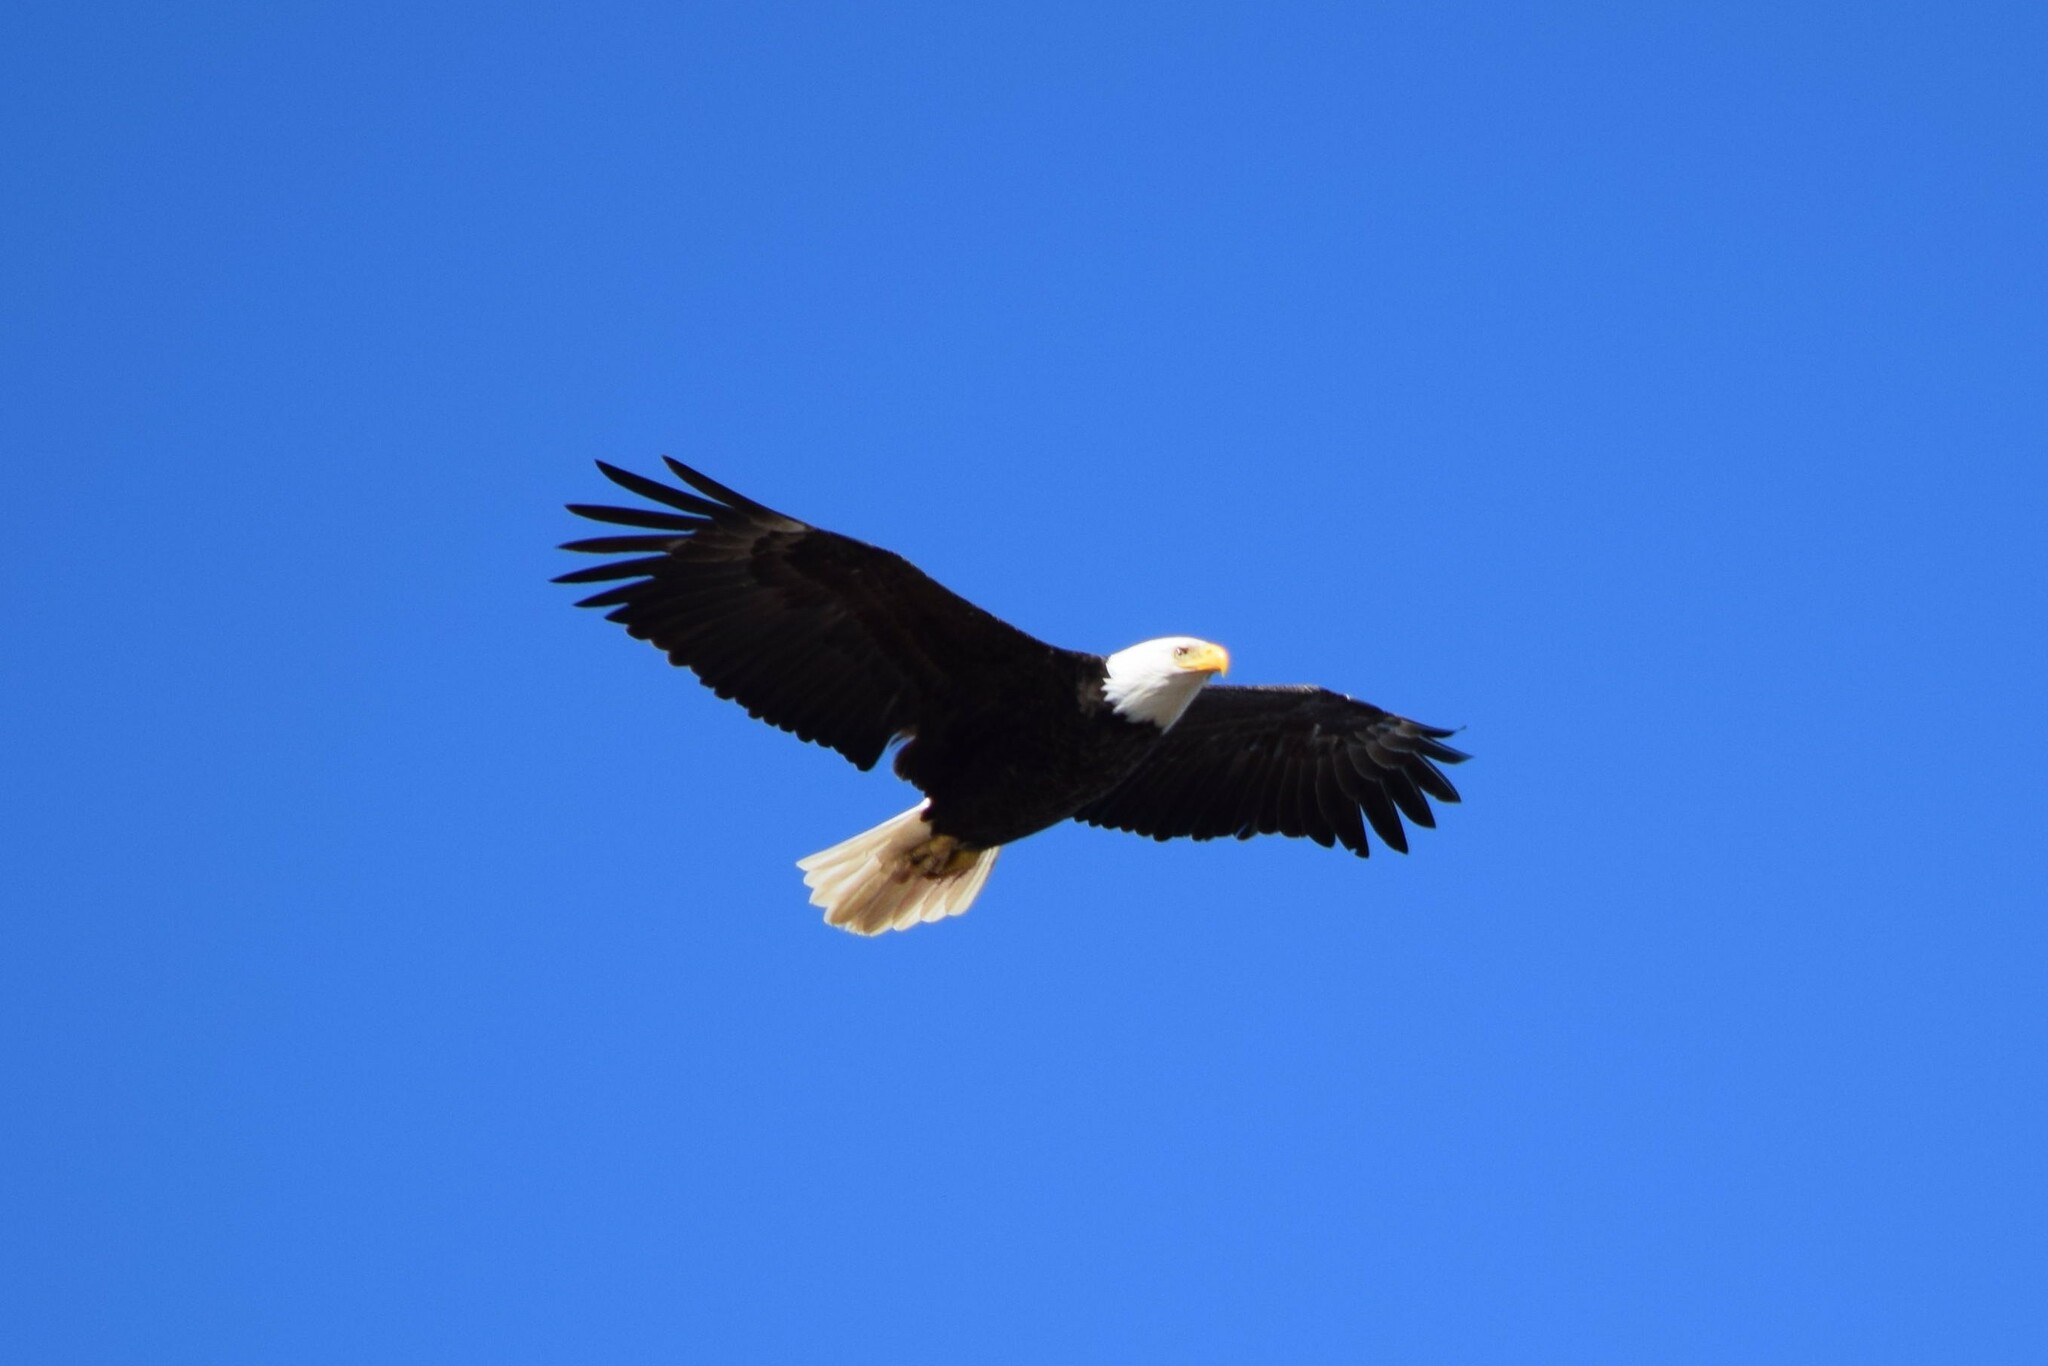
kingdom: Animalia
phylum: Chordata
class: Aves
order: Accipitriformes
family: Accipitridae
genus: Haliaeetus
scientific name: Haliaeetus leucocephalus
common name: Bald eagle
